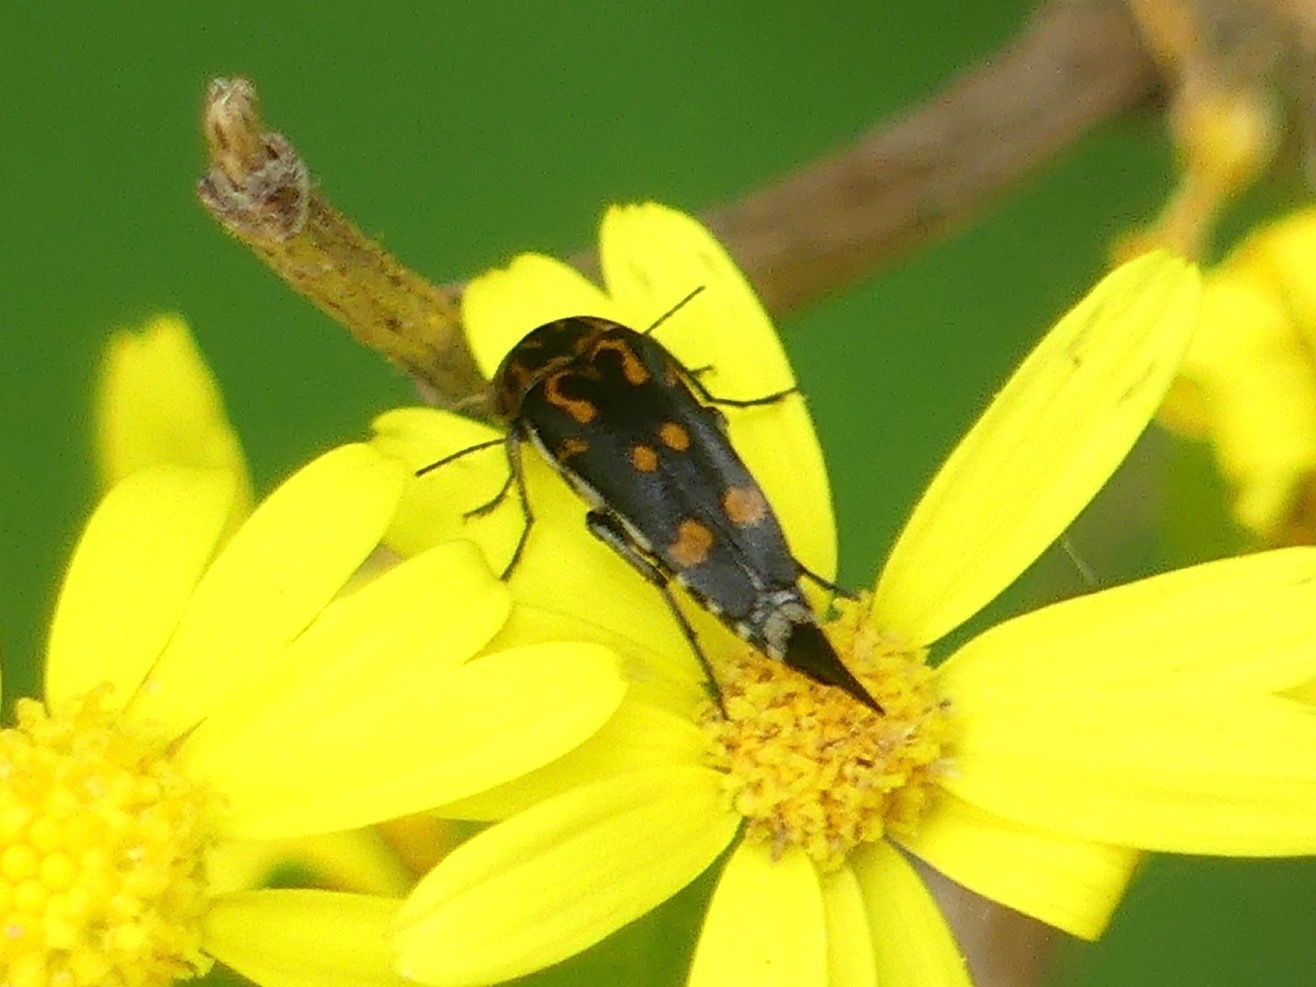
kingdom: Animalia
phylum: Arthropoda
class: Insecta
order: Coleoptera
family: Mordellidae
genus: Hoshihananomia
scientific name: Hoshihananomia octopunctata
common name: Eight-spotted tumbling flower beetle
